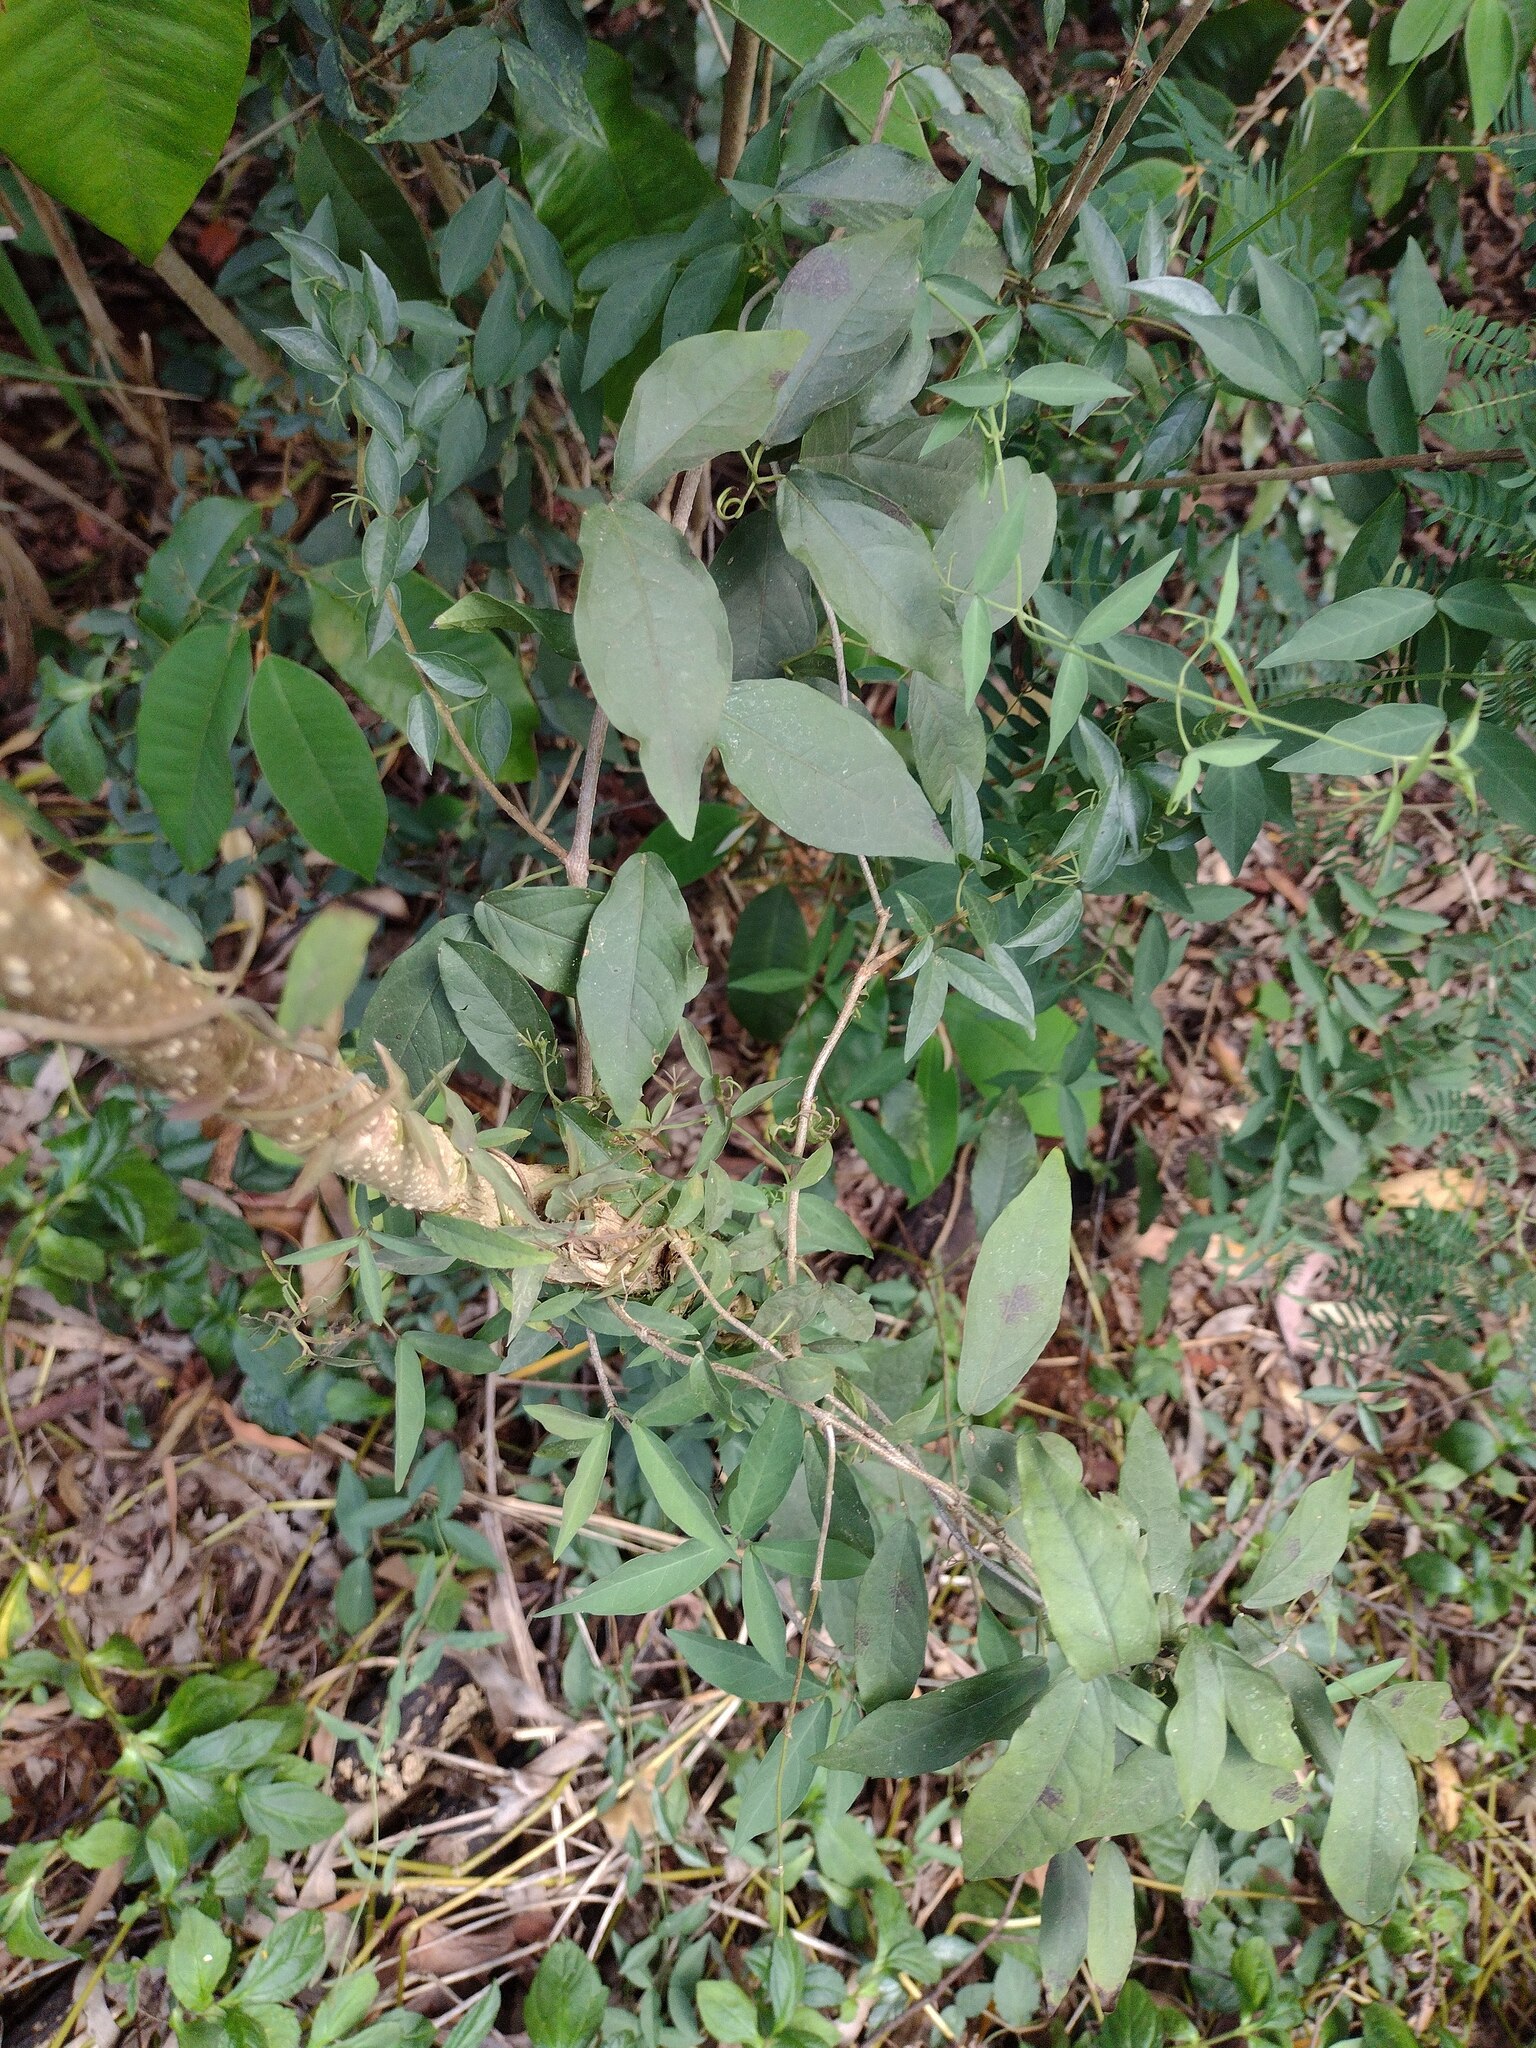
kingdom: Plantae
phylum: Tracheophyta
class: Magnoliopsida
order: Lamiales
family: Bignoniaceae
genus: Dolichandra
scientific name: Dolichandra unguis-cati
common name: Catclaw vine
